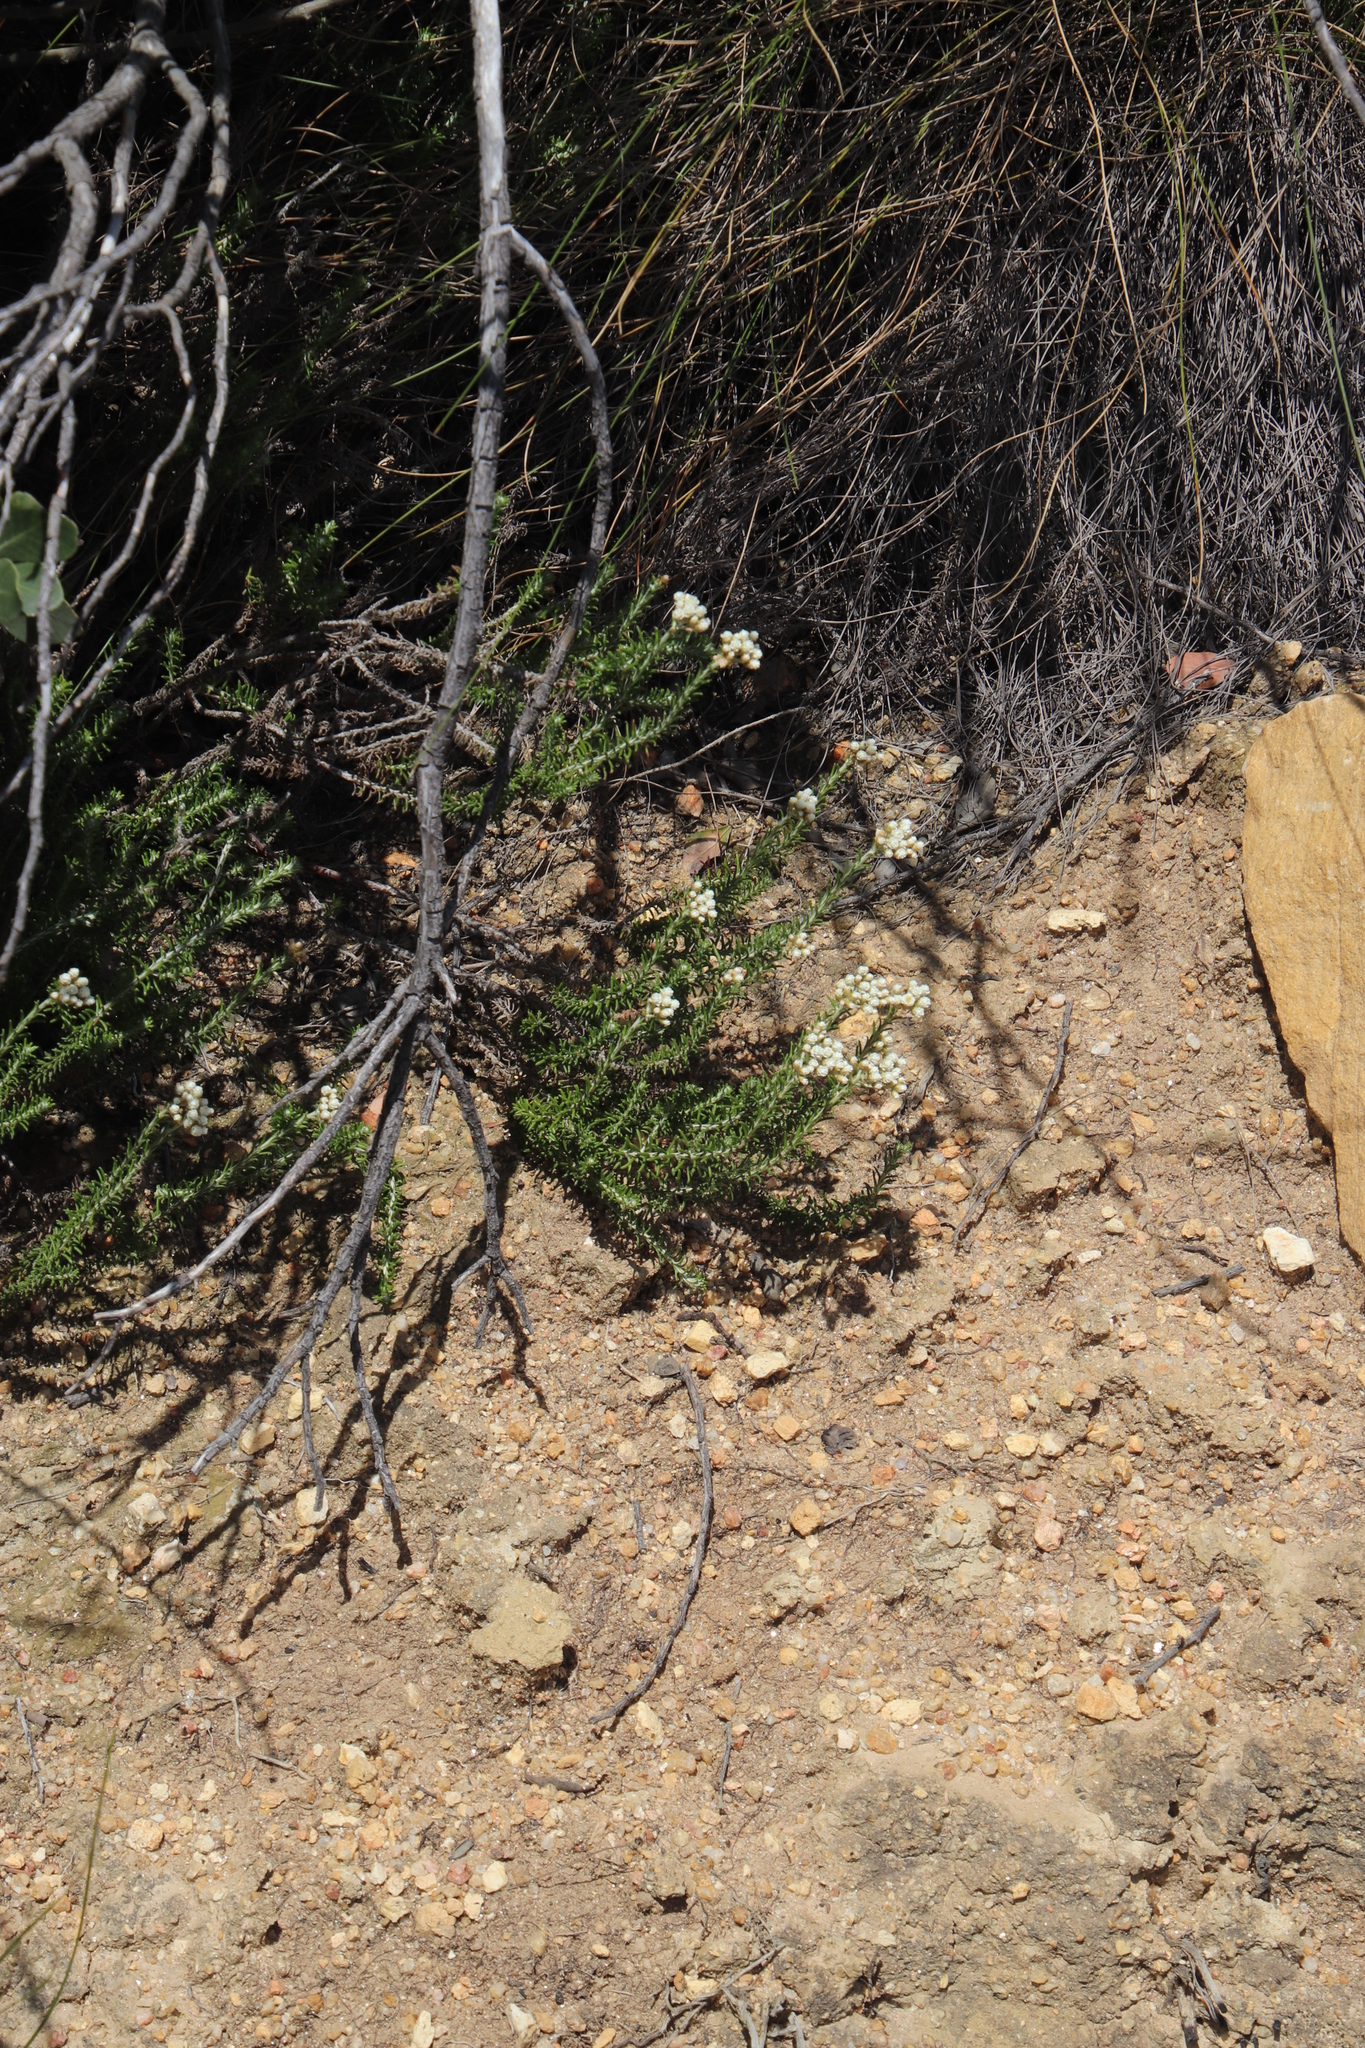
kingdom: Plantae
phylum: Tracheophyta
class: Magnoliopsida
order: Asterales
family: Asteraceae
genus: Helichrysum
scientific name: Helichrysum teretifolium
